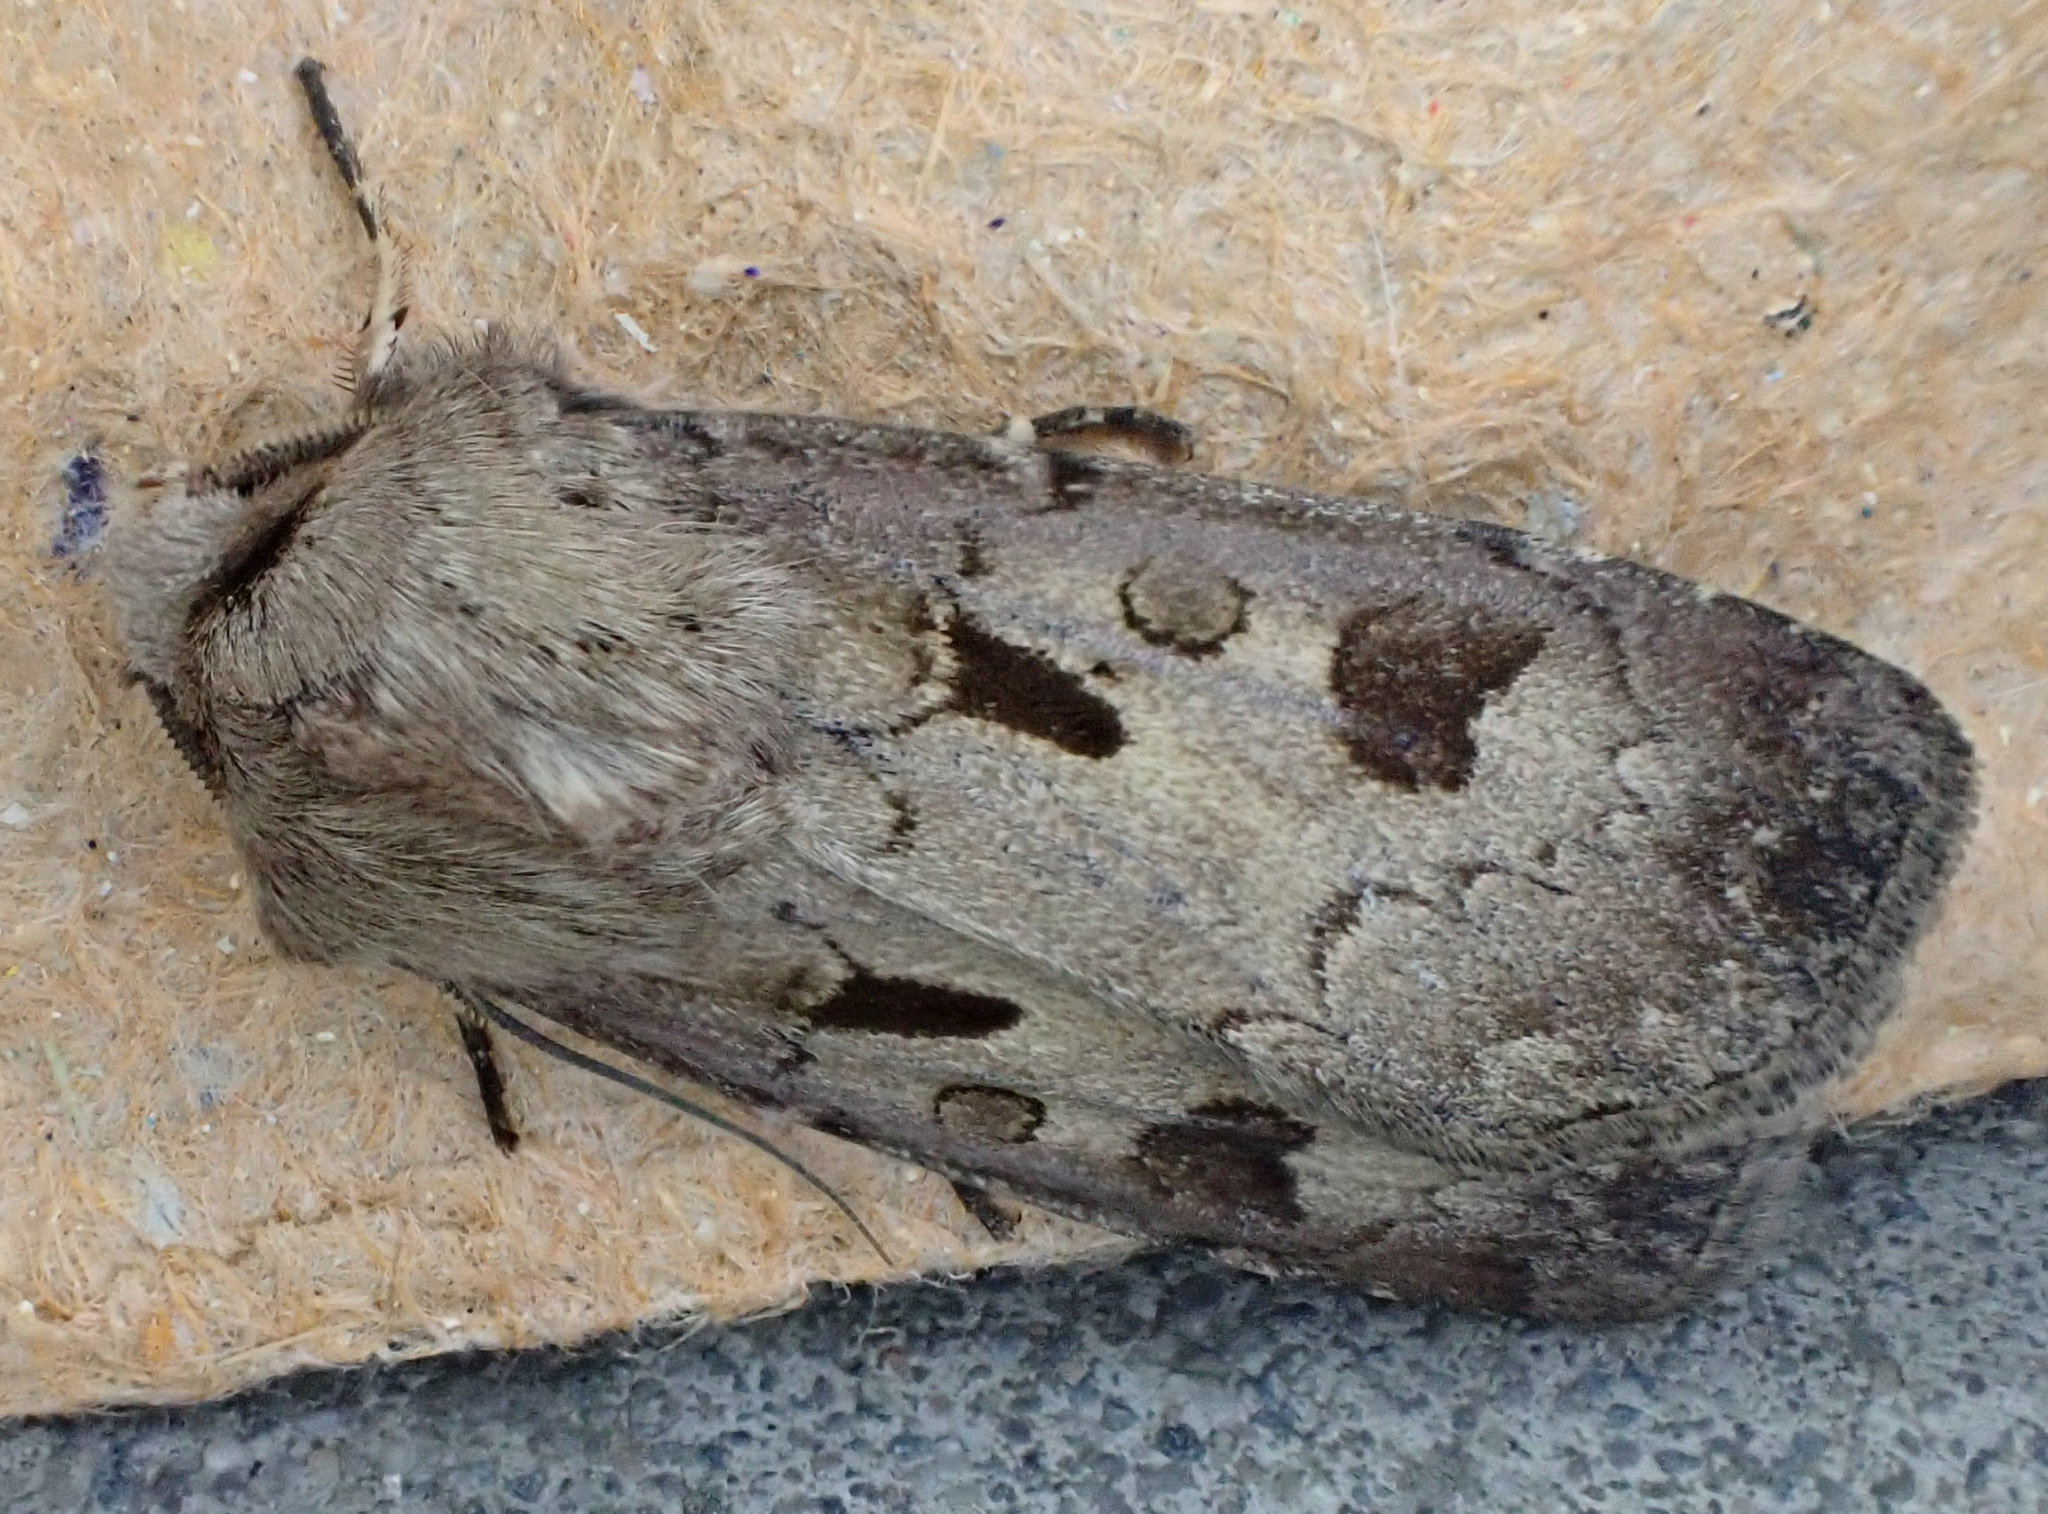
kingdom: Animalia
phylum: Arthropoda
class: Insecta
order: Lepidoptera
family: Noctuidae
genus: Agrotis
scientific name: Agrotis exclamationis
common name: Heart and dart
